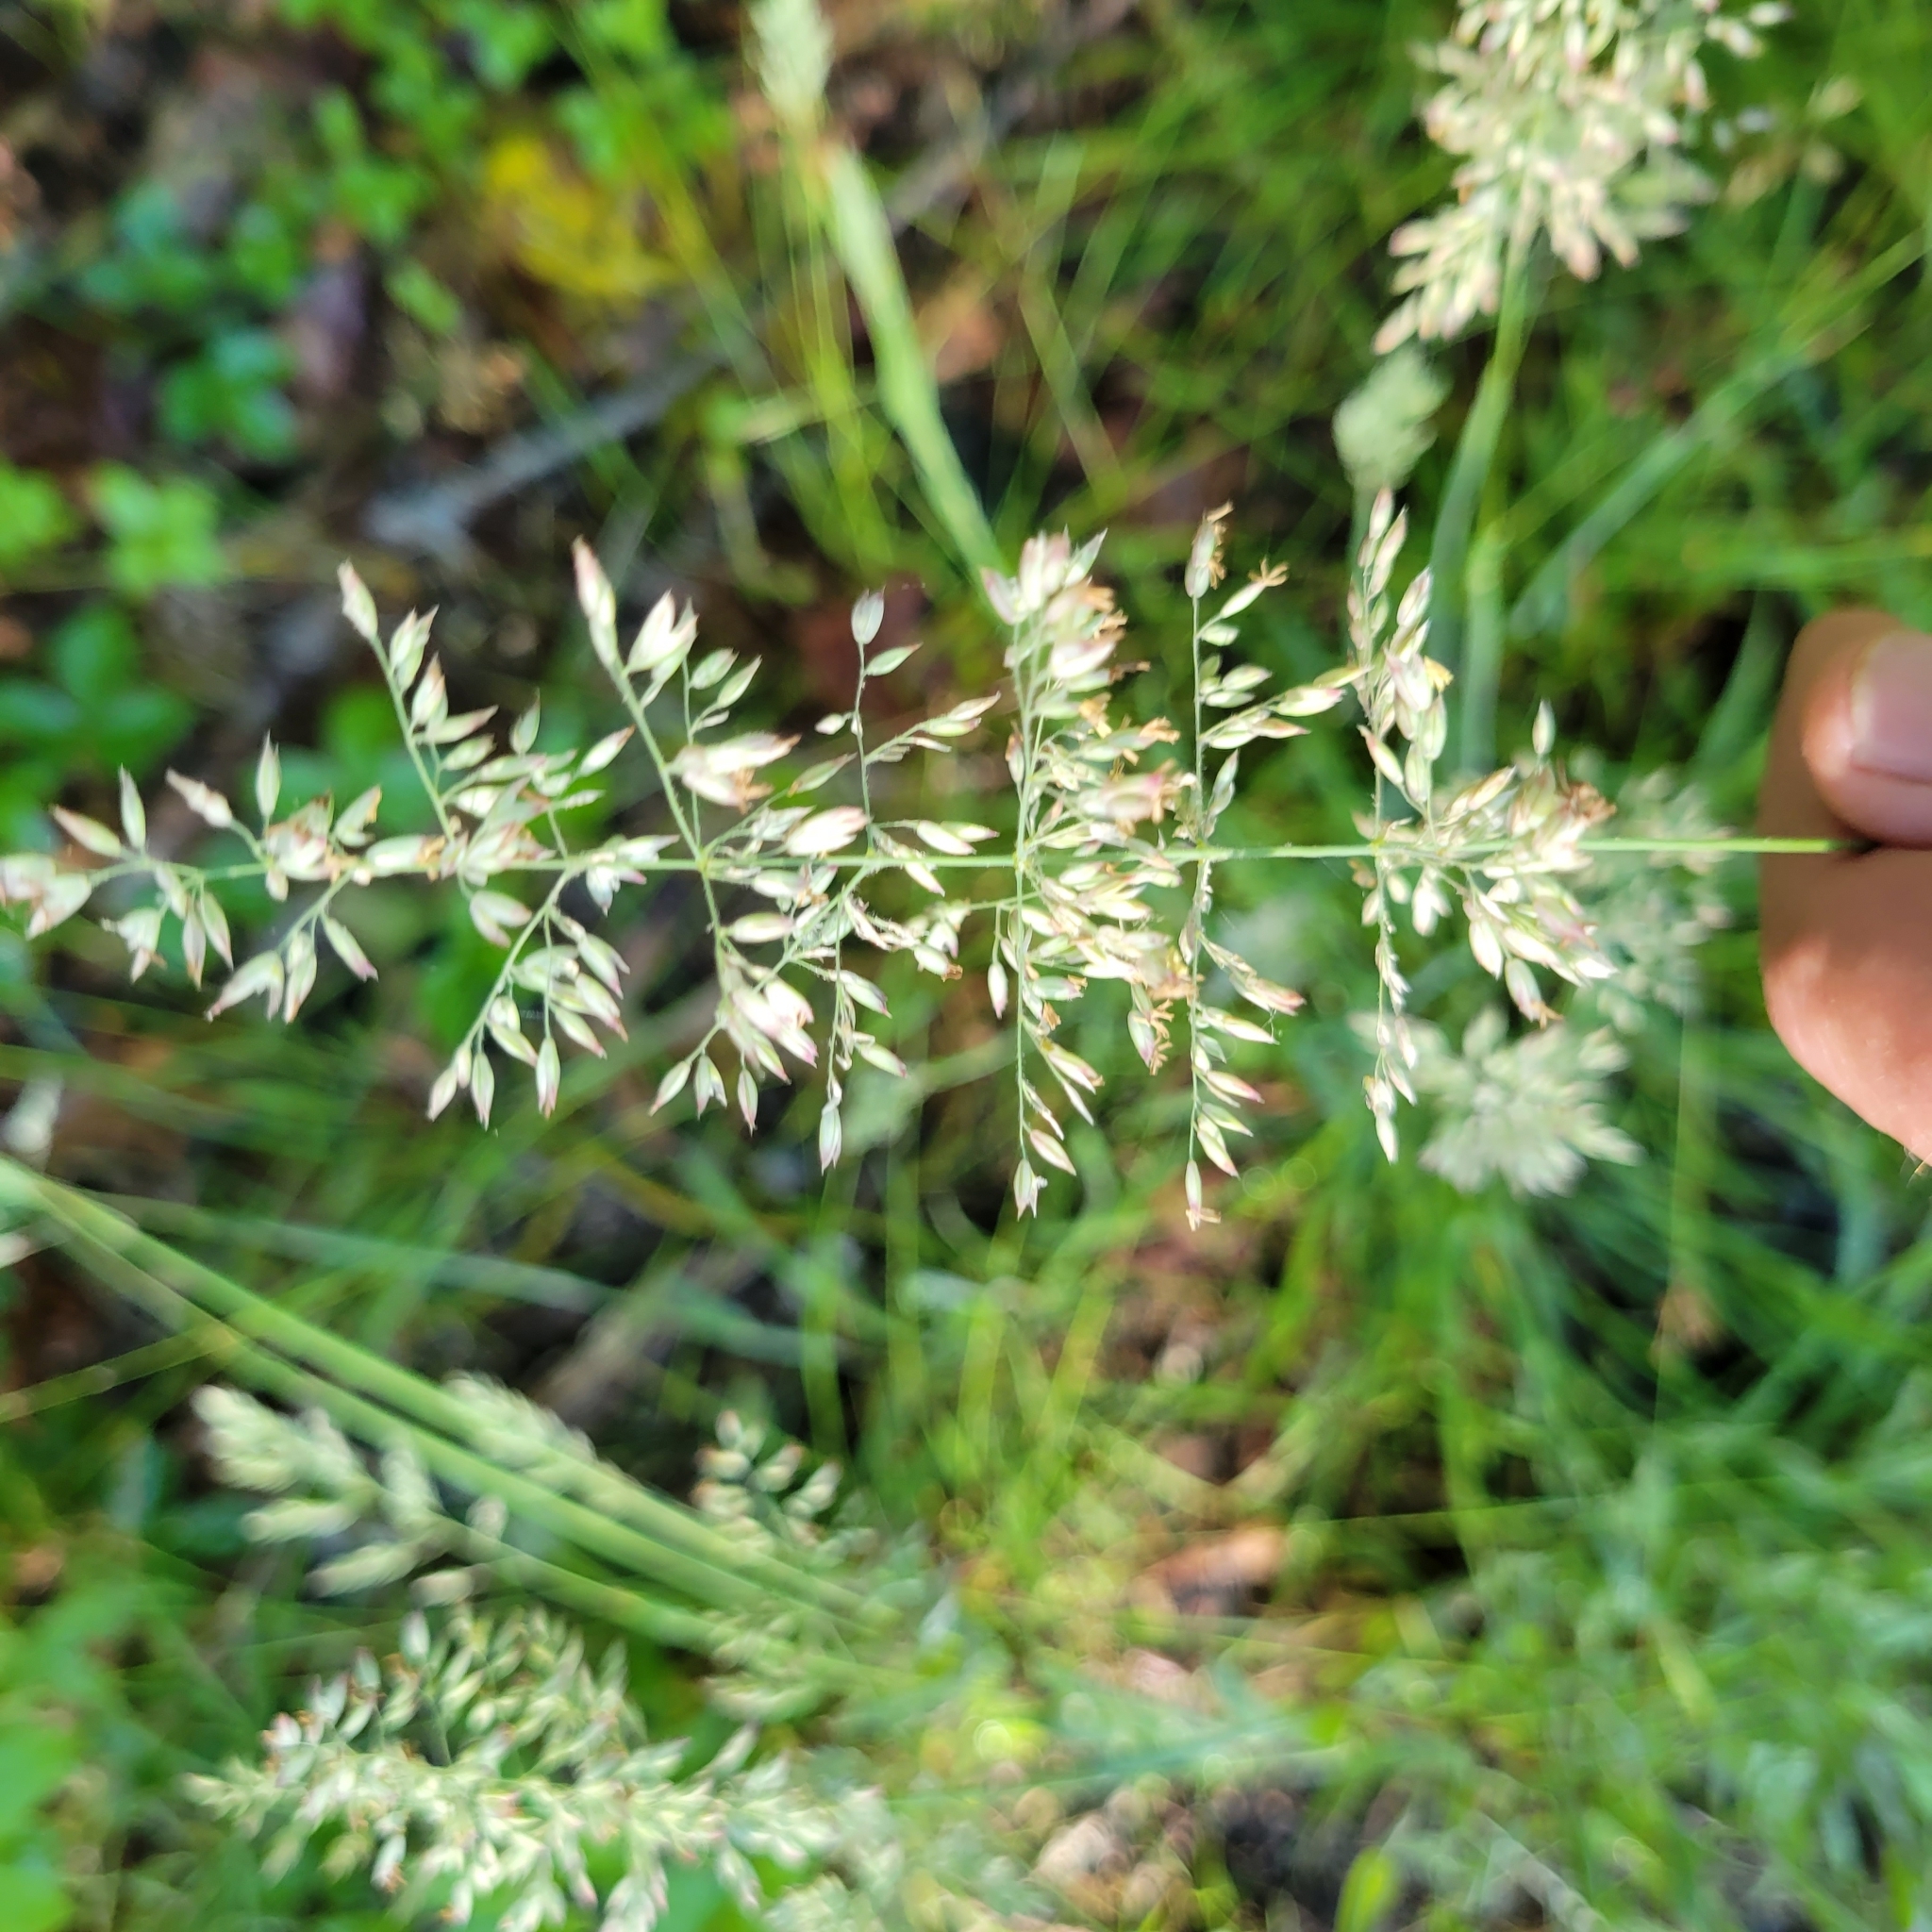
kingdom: Plantae
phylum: Tracheophyta
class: Liliopsida
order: Poales
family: Poaceae
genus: Holcus
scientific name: Holcus lanatus
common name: Yorkshire-fog
